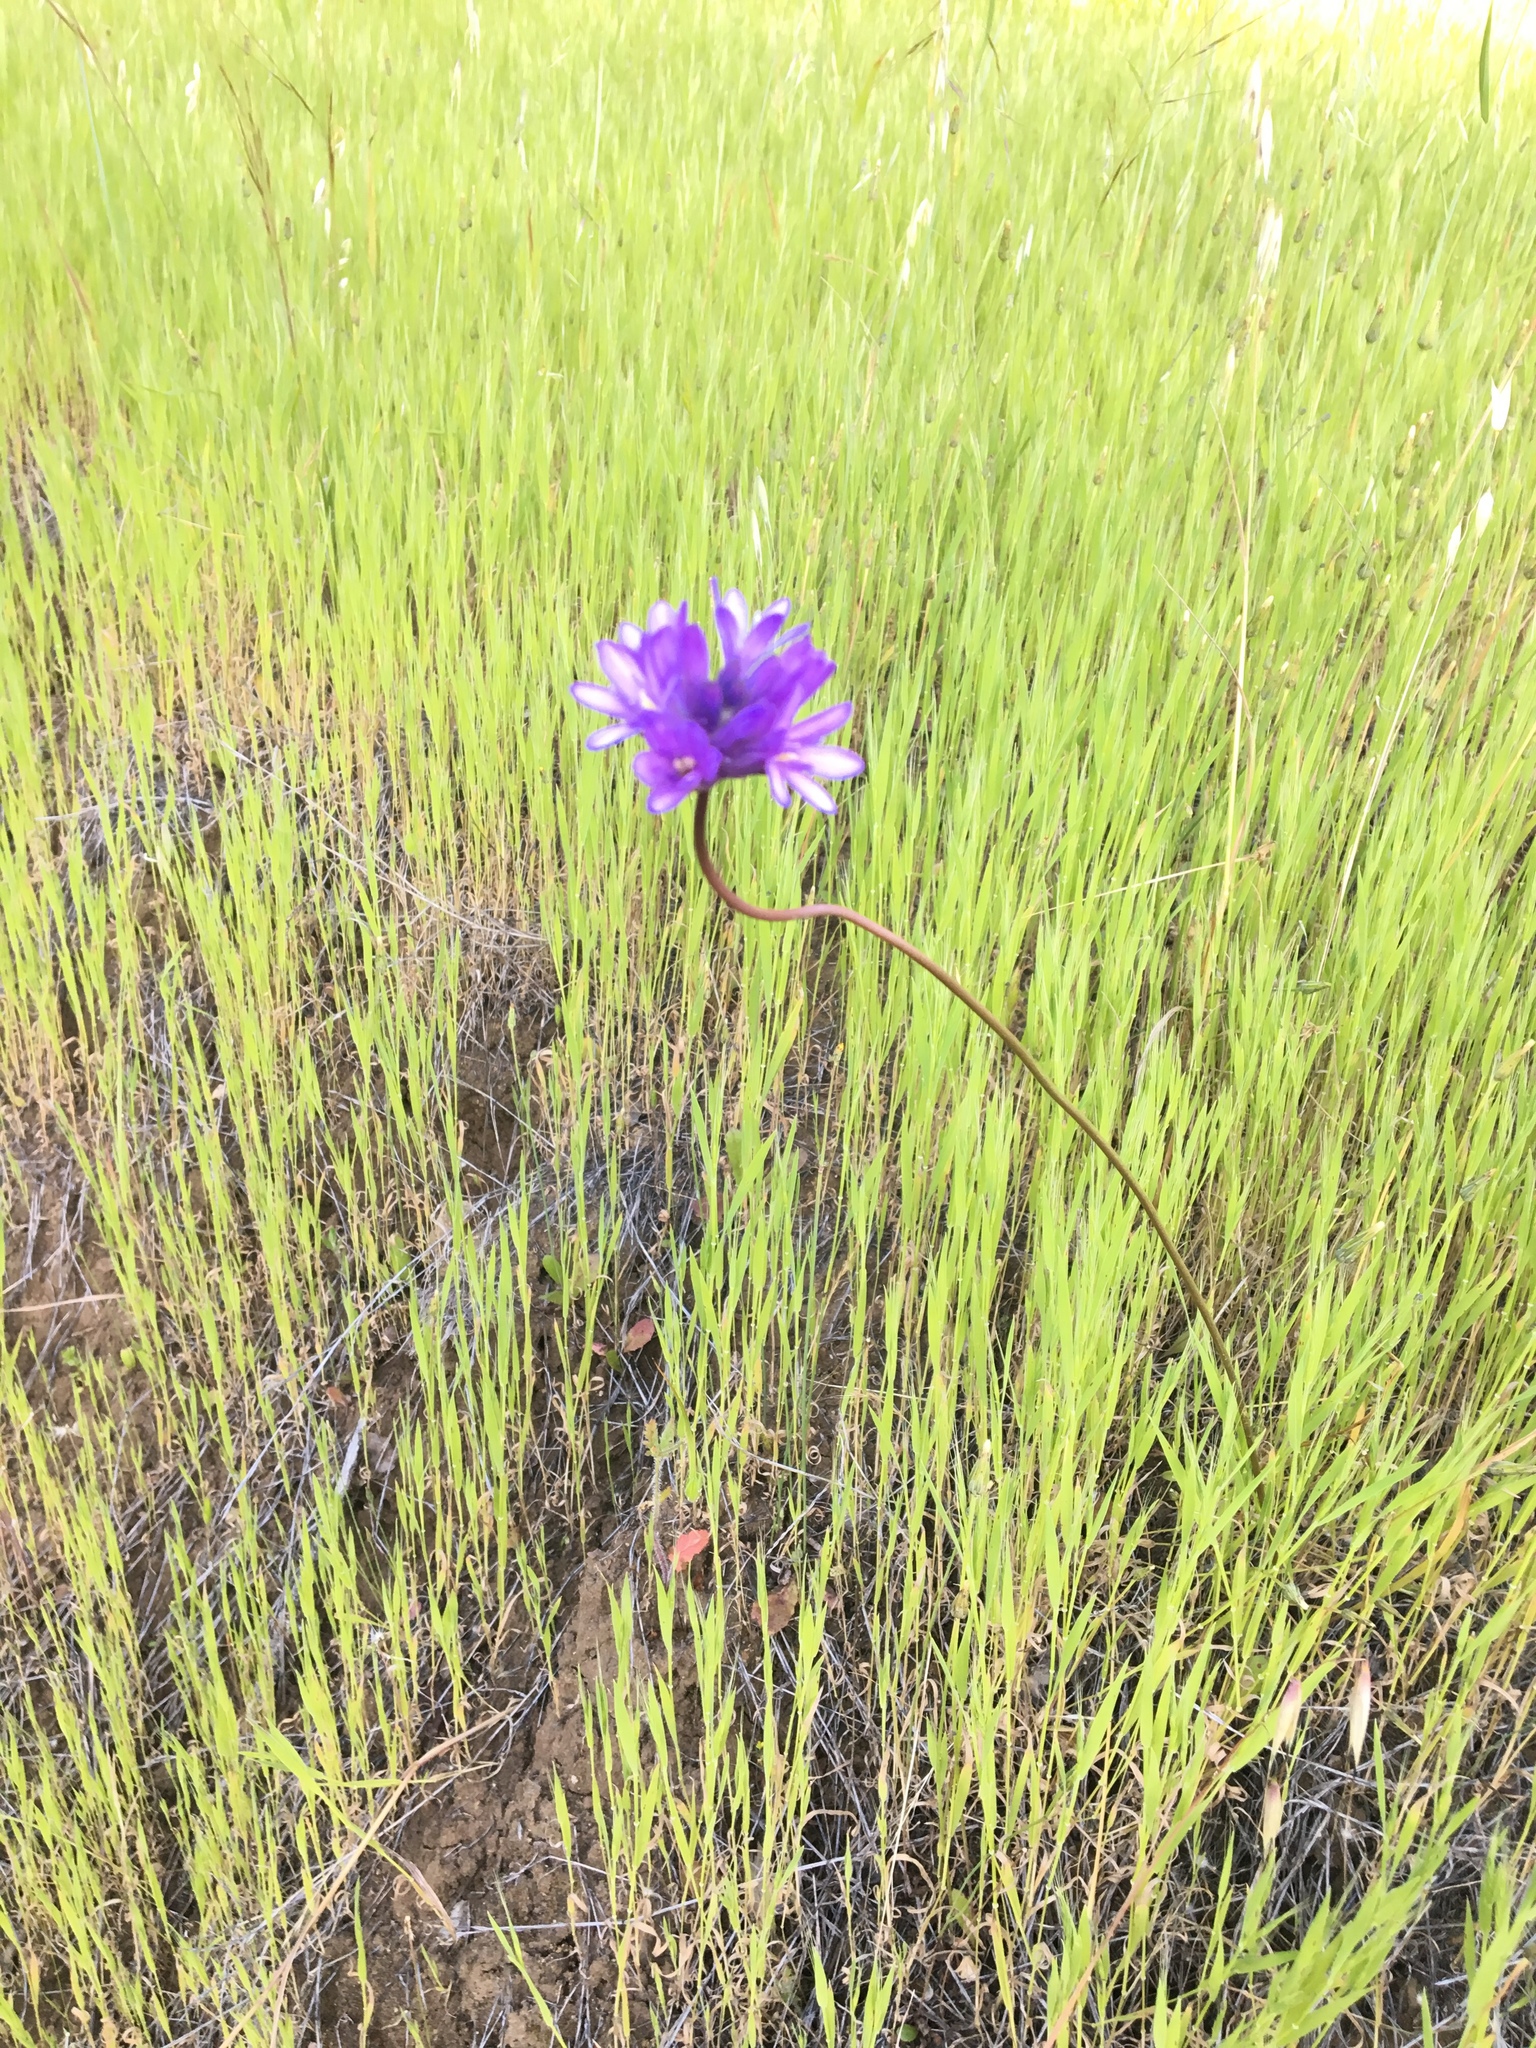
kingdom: Plantae
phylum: Tracheophyta
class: Liliopsida
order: Asparagales
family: Asparagaceae
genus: Dichelostemma
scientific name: Dichelostemma congestum
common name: Fork-tooth ookow
